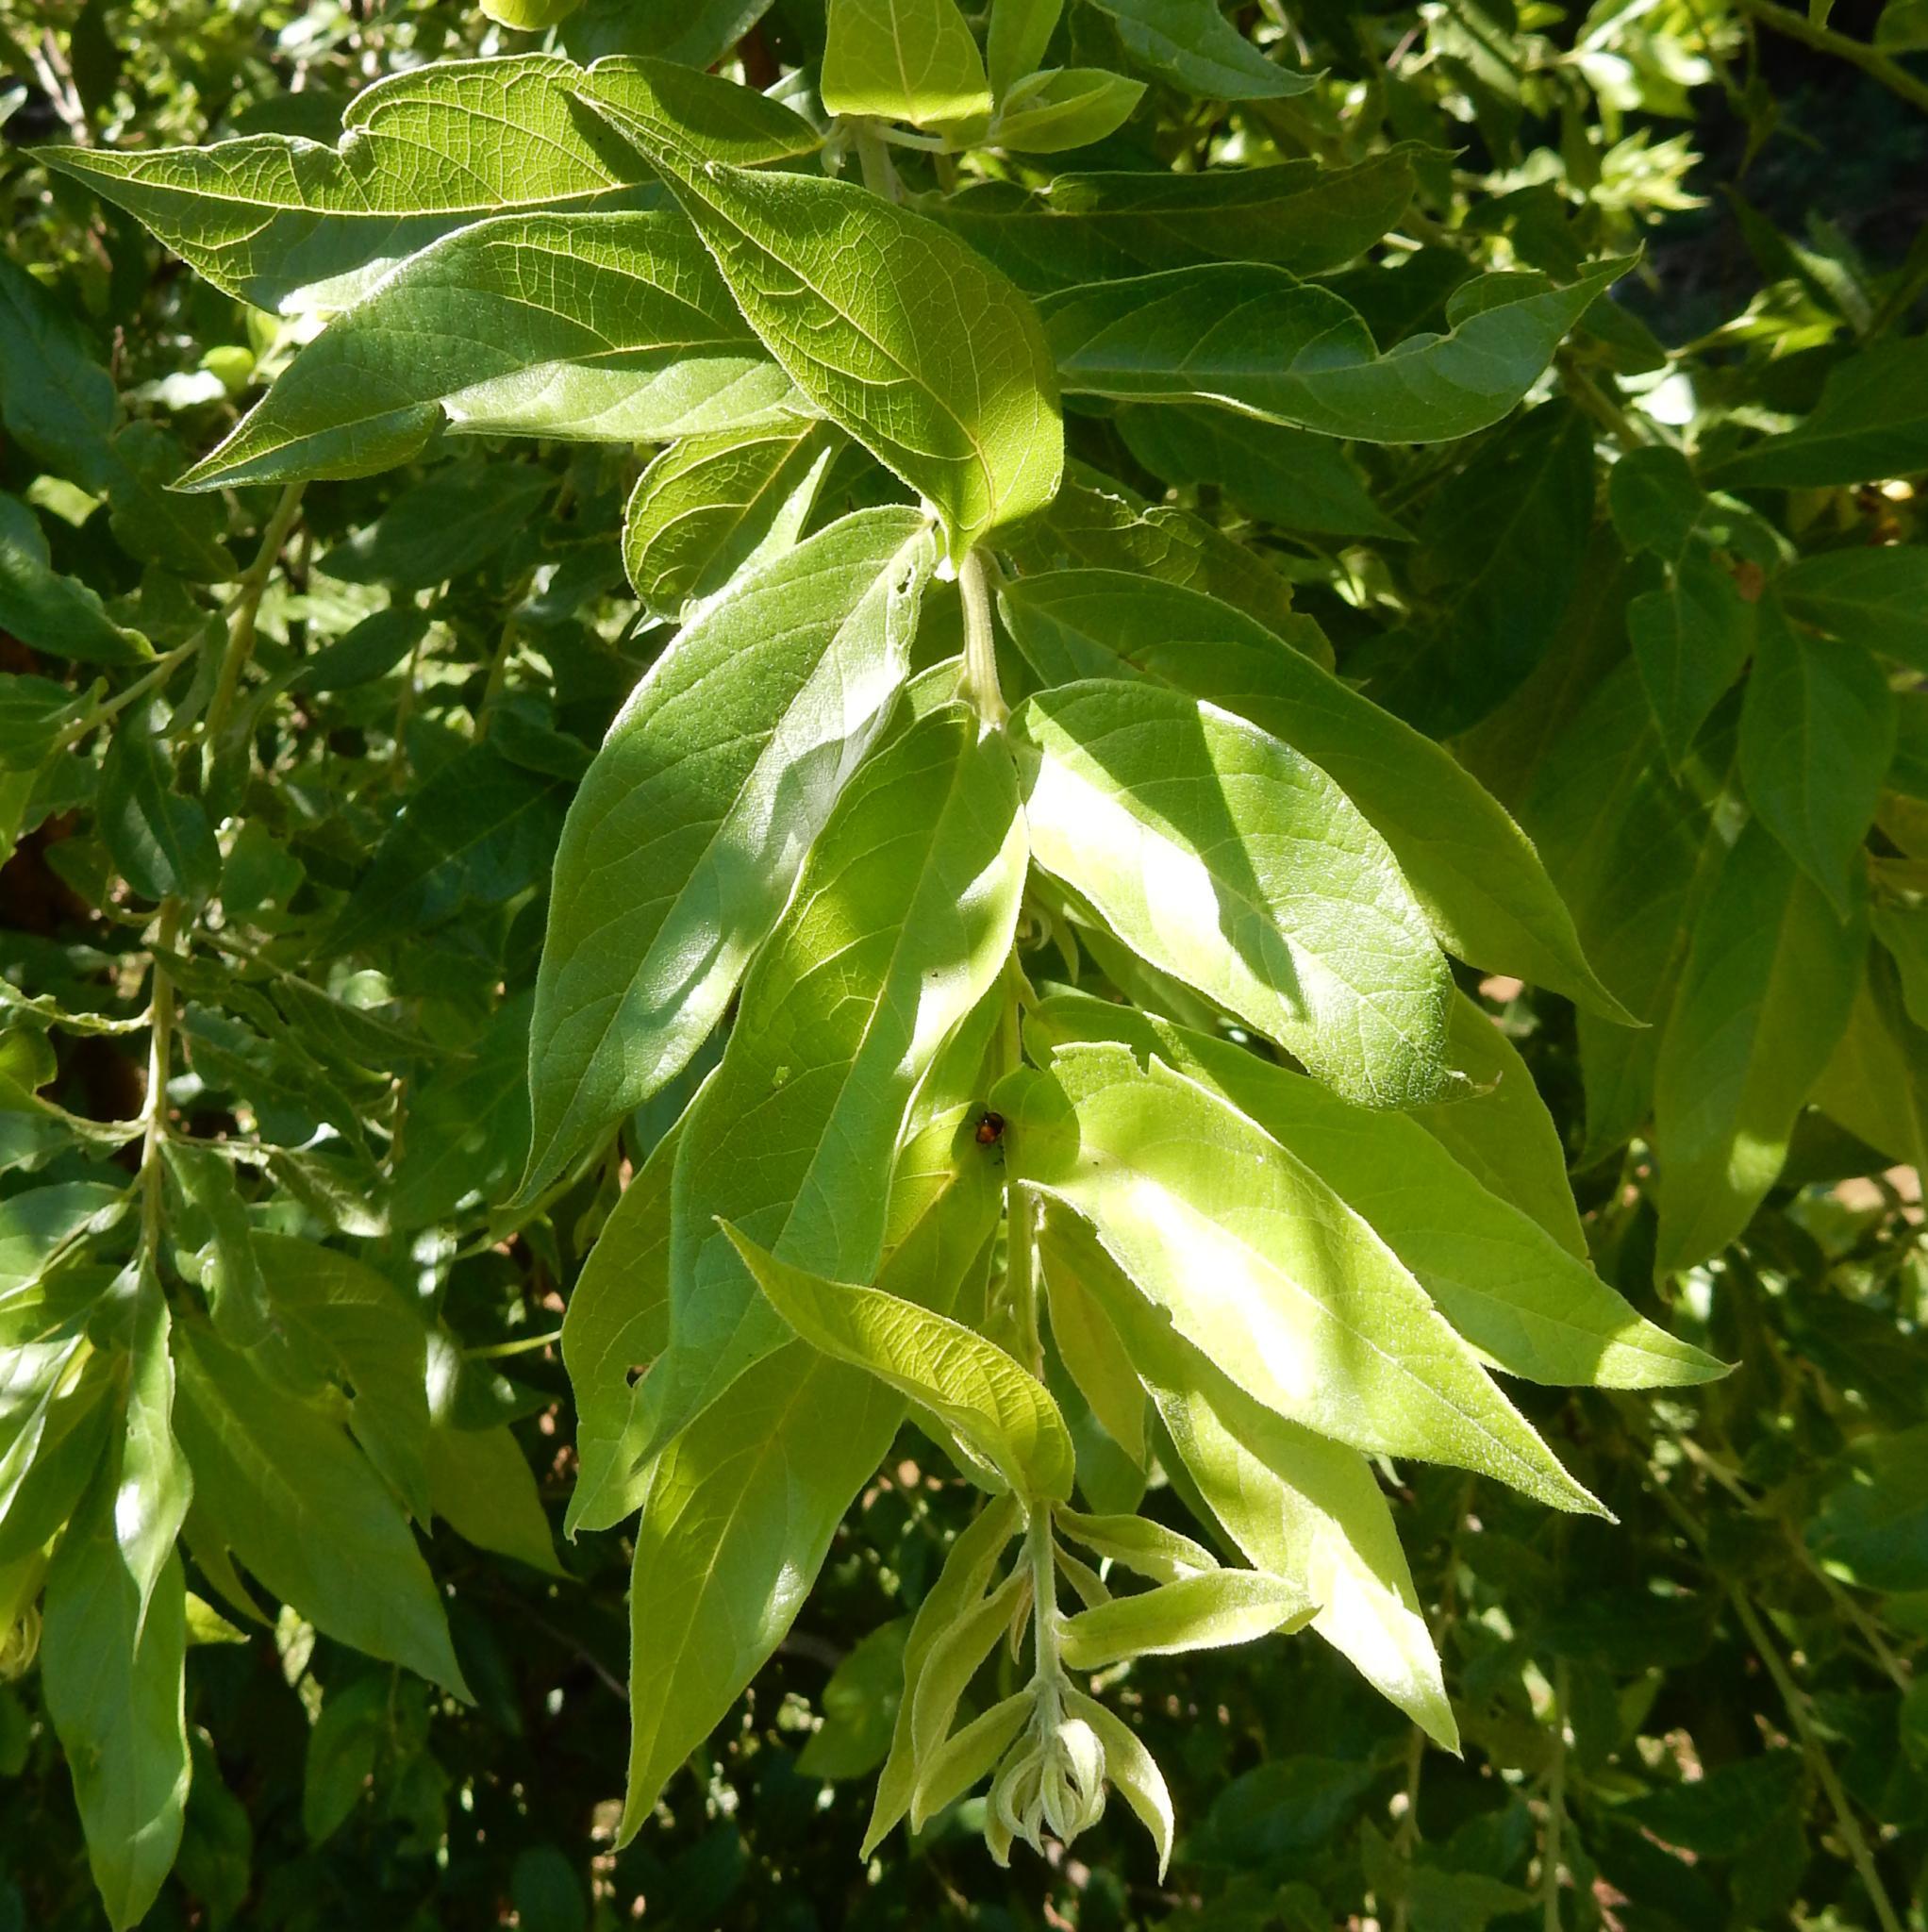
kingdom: Plantae
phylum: Tracheophyta
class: Magnoliopsida
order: Malpighiales
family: Achariaceae
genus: Kiggelaria
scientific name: Kiggelaria africana
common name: Wild peach
